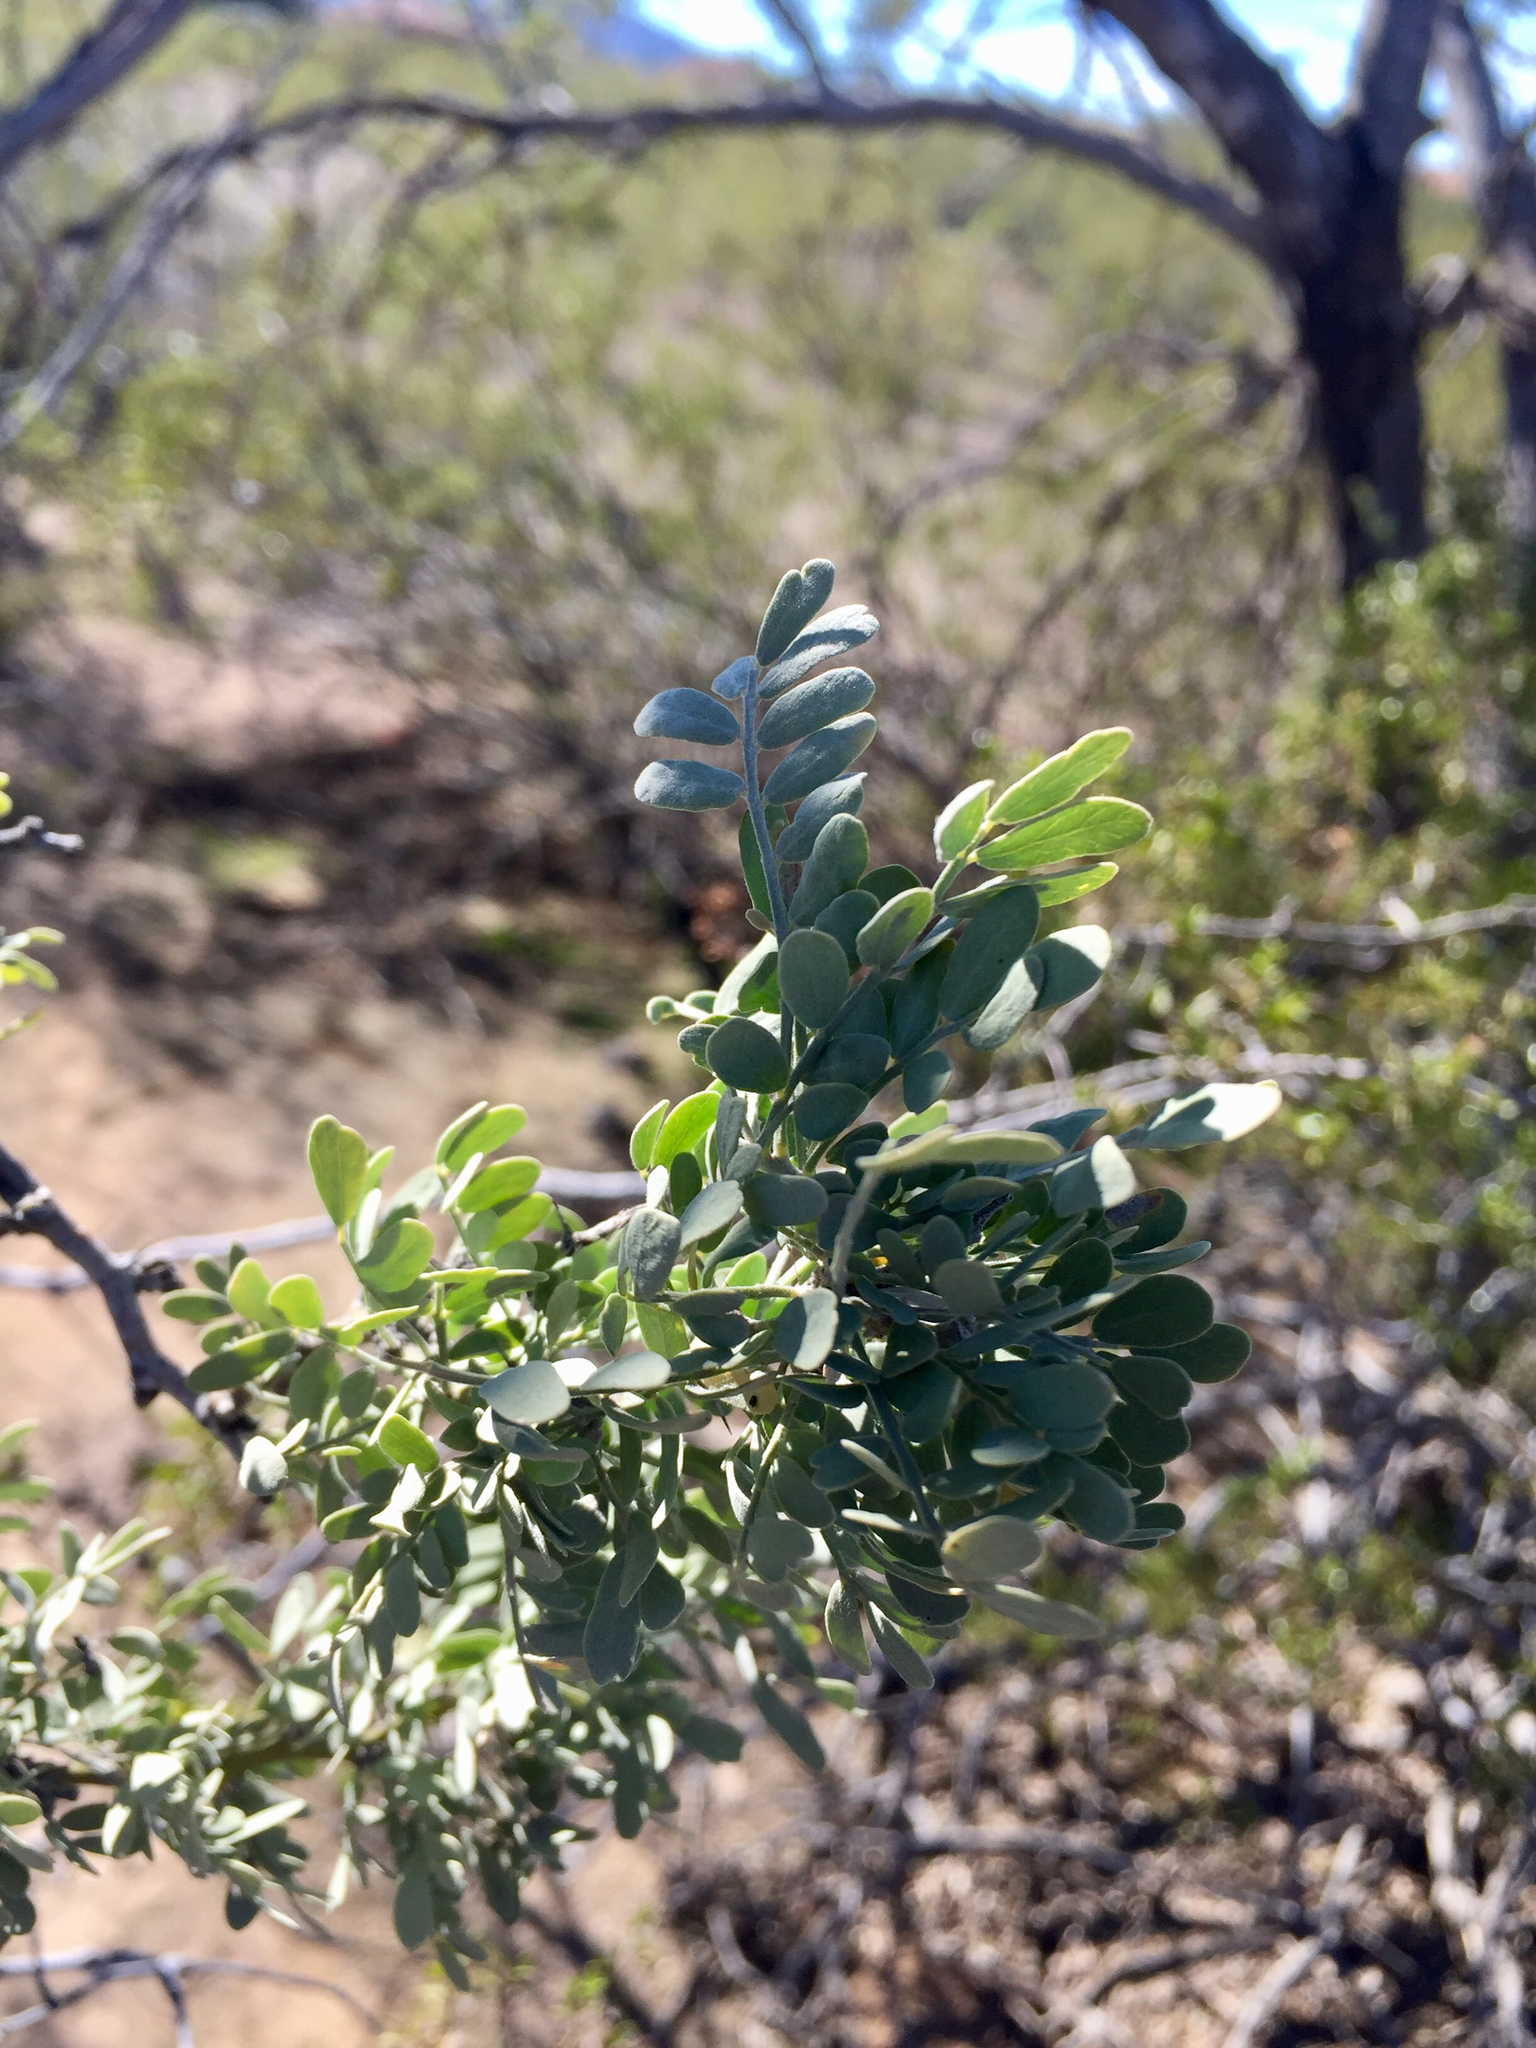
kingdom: Plantae
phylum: Tracheophyta
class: Magnoliopsida
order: Fabales
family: Fabaceae
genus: Olneya
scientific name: Olneya tesota
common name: Desert ironwood
